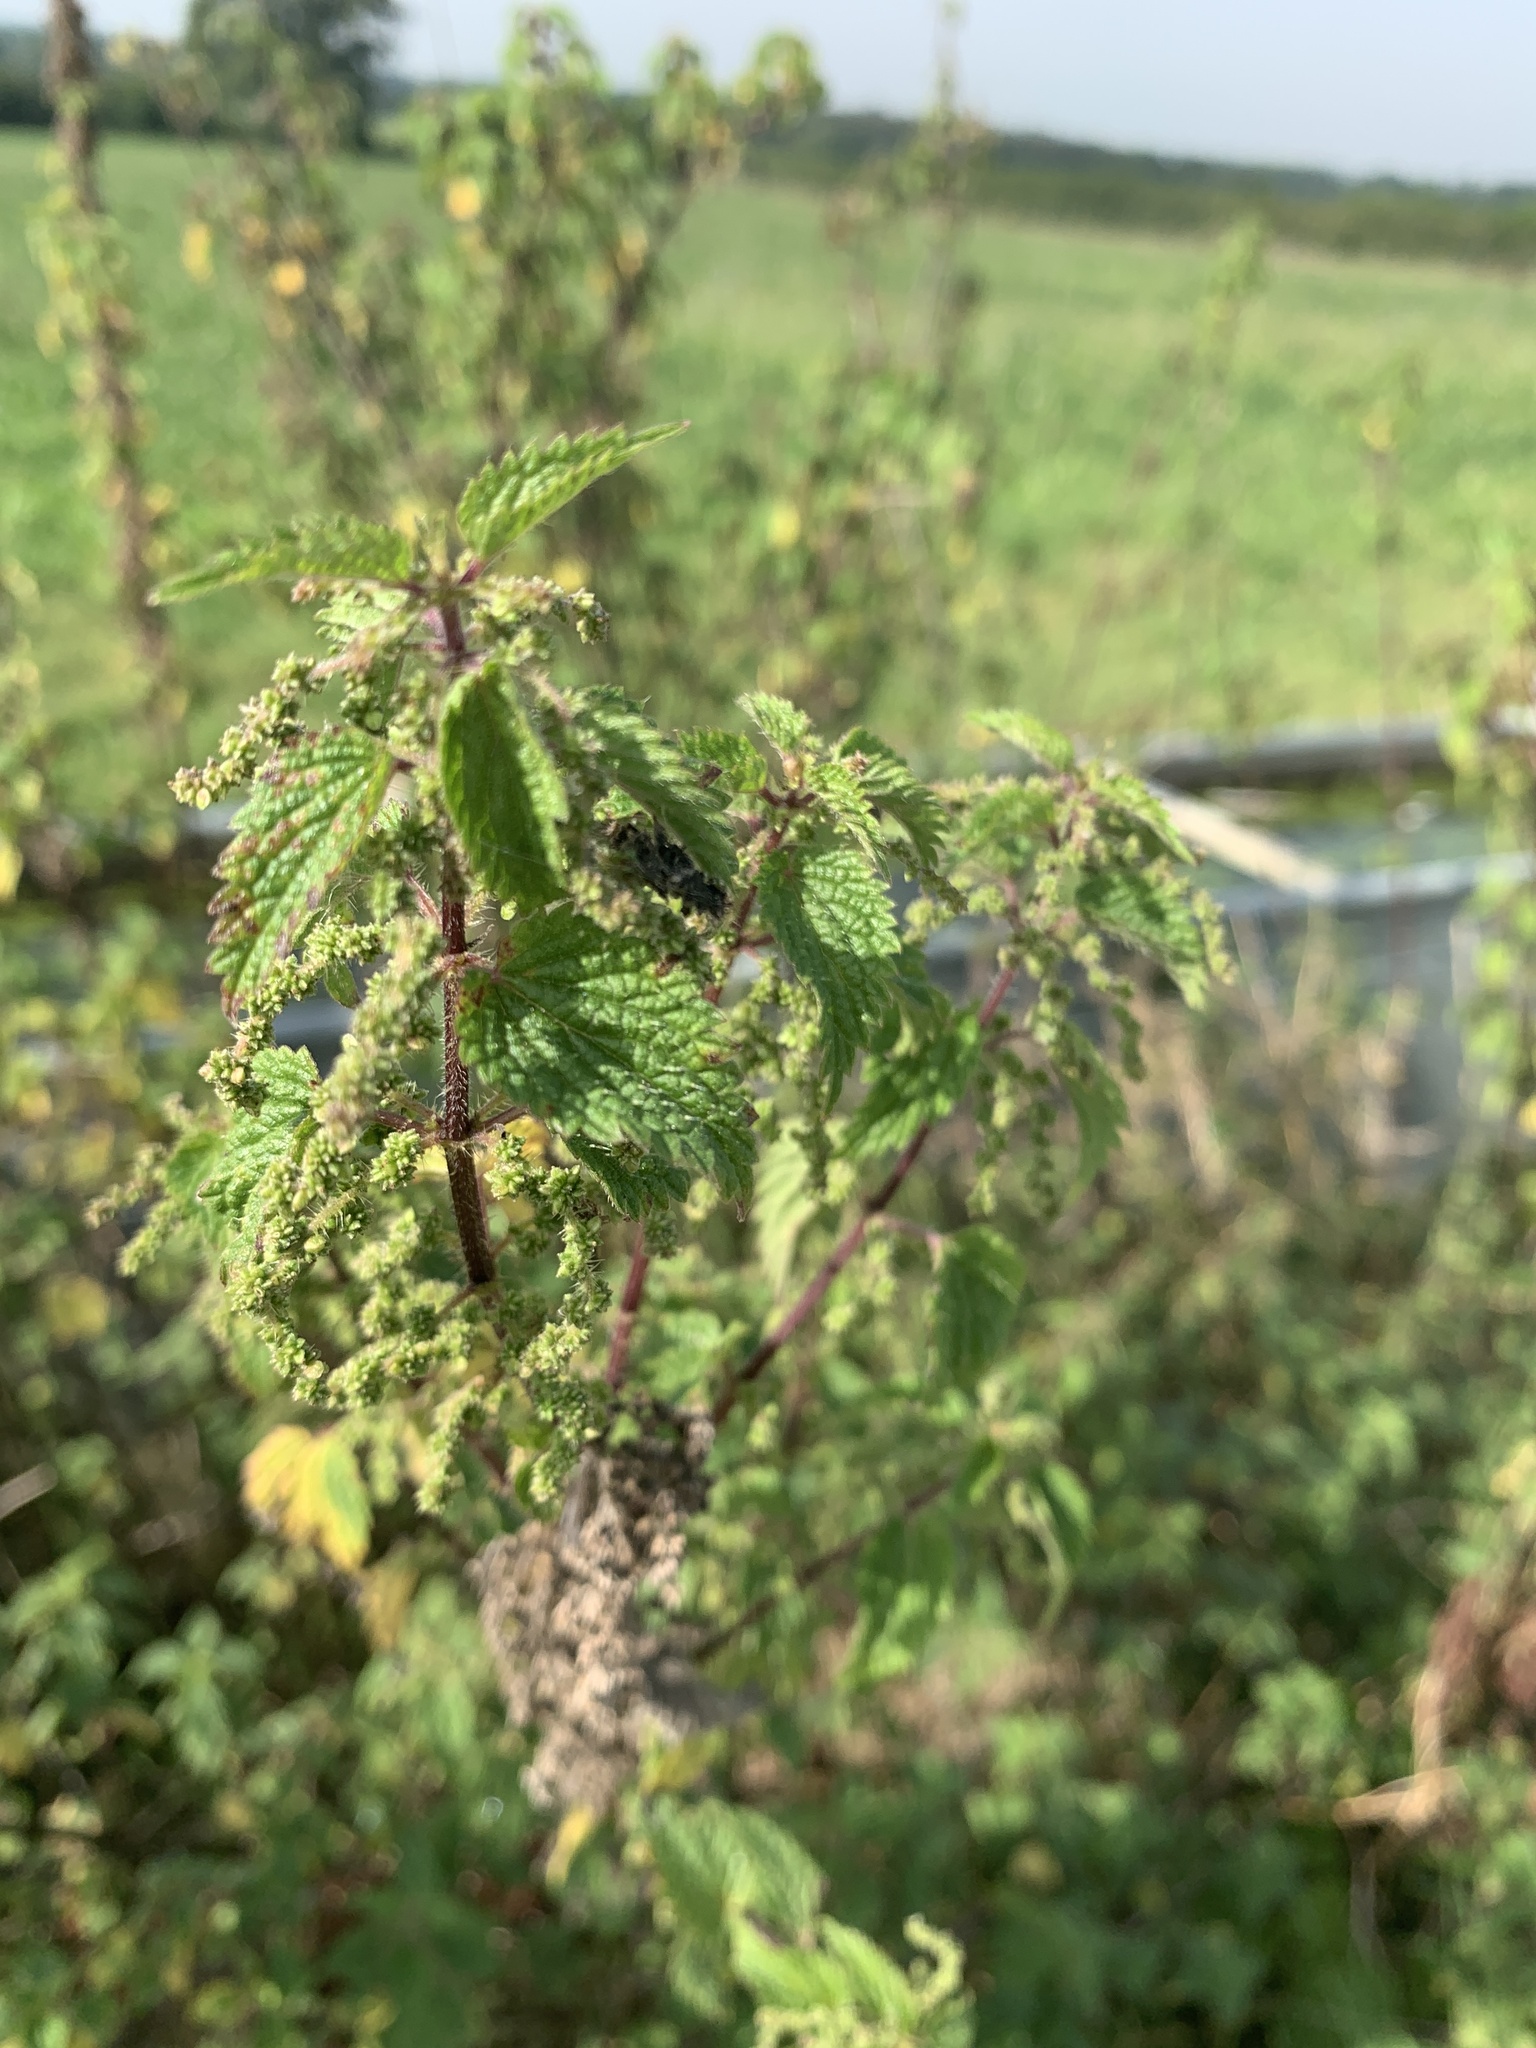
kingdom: Plantae
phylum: Tracheophyta
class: Magnoliopsida
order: Rosales
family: Urticaceae
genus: Urtica
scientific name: Urtica dioica
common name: Common nettle
